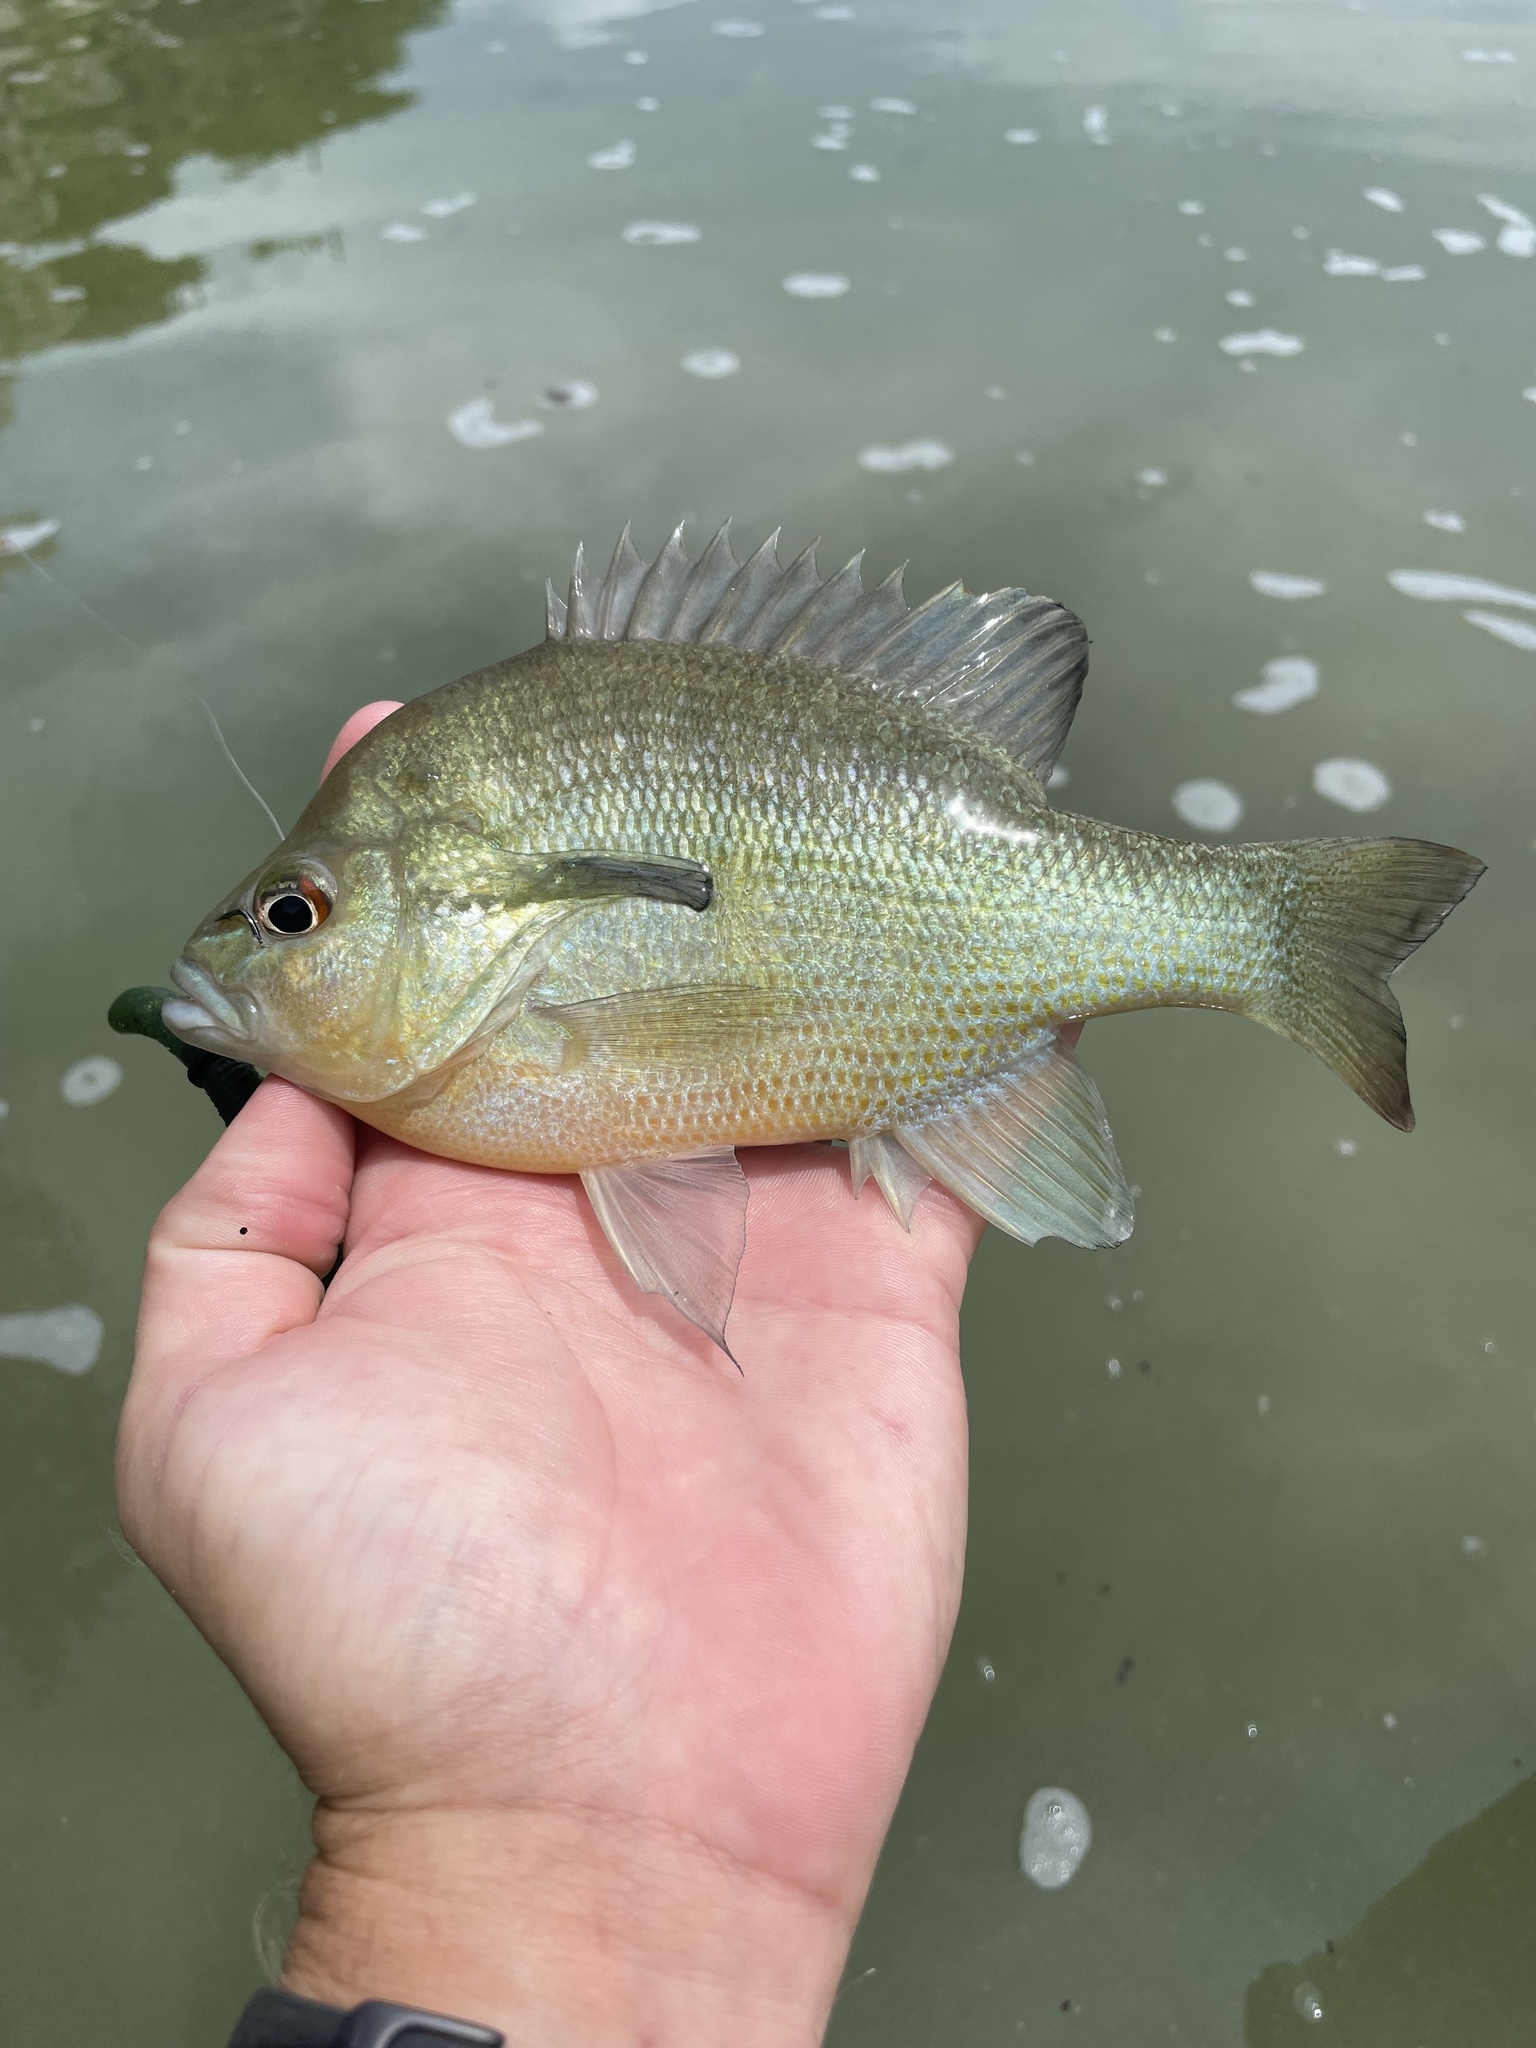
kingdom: Animalia
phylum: Chordata
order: Perciformes
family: Centrarchidae
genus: Lepomis
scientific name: Lepomis auritus
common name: Redbreast sunfish
